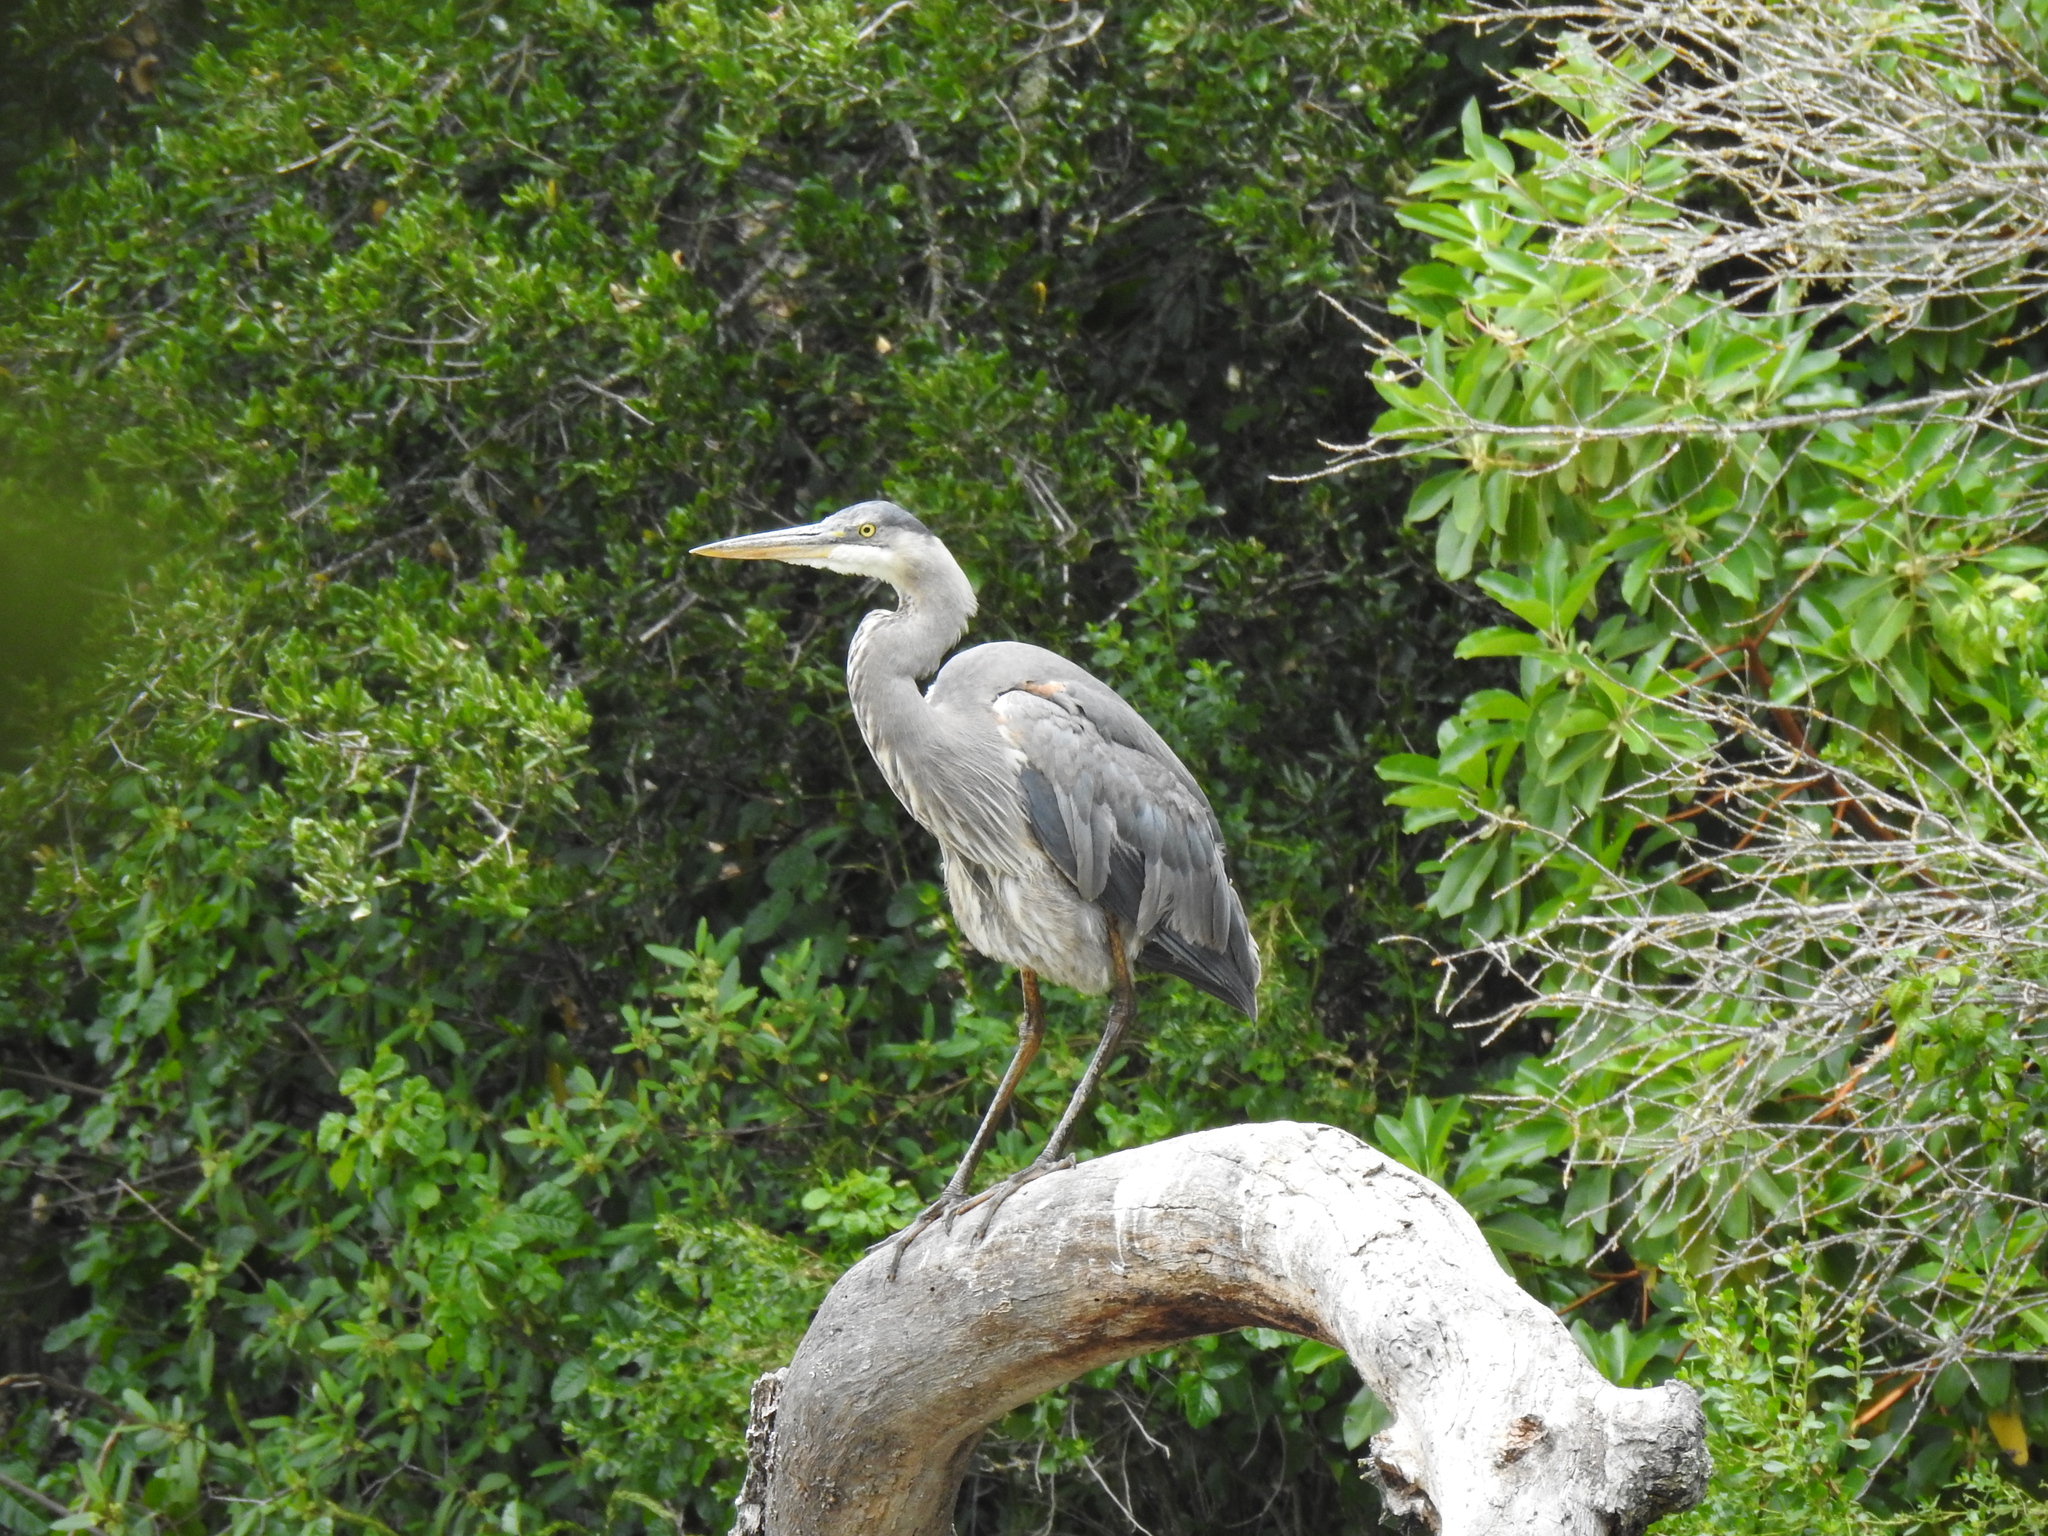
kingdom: Animalia
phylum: Chordata
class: Aves
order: Pelecaniformes
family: Ardeidae
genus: Ardea
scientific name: Ardea herodias
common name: Great blue heron
